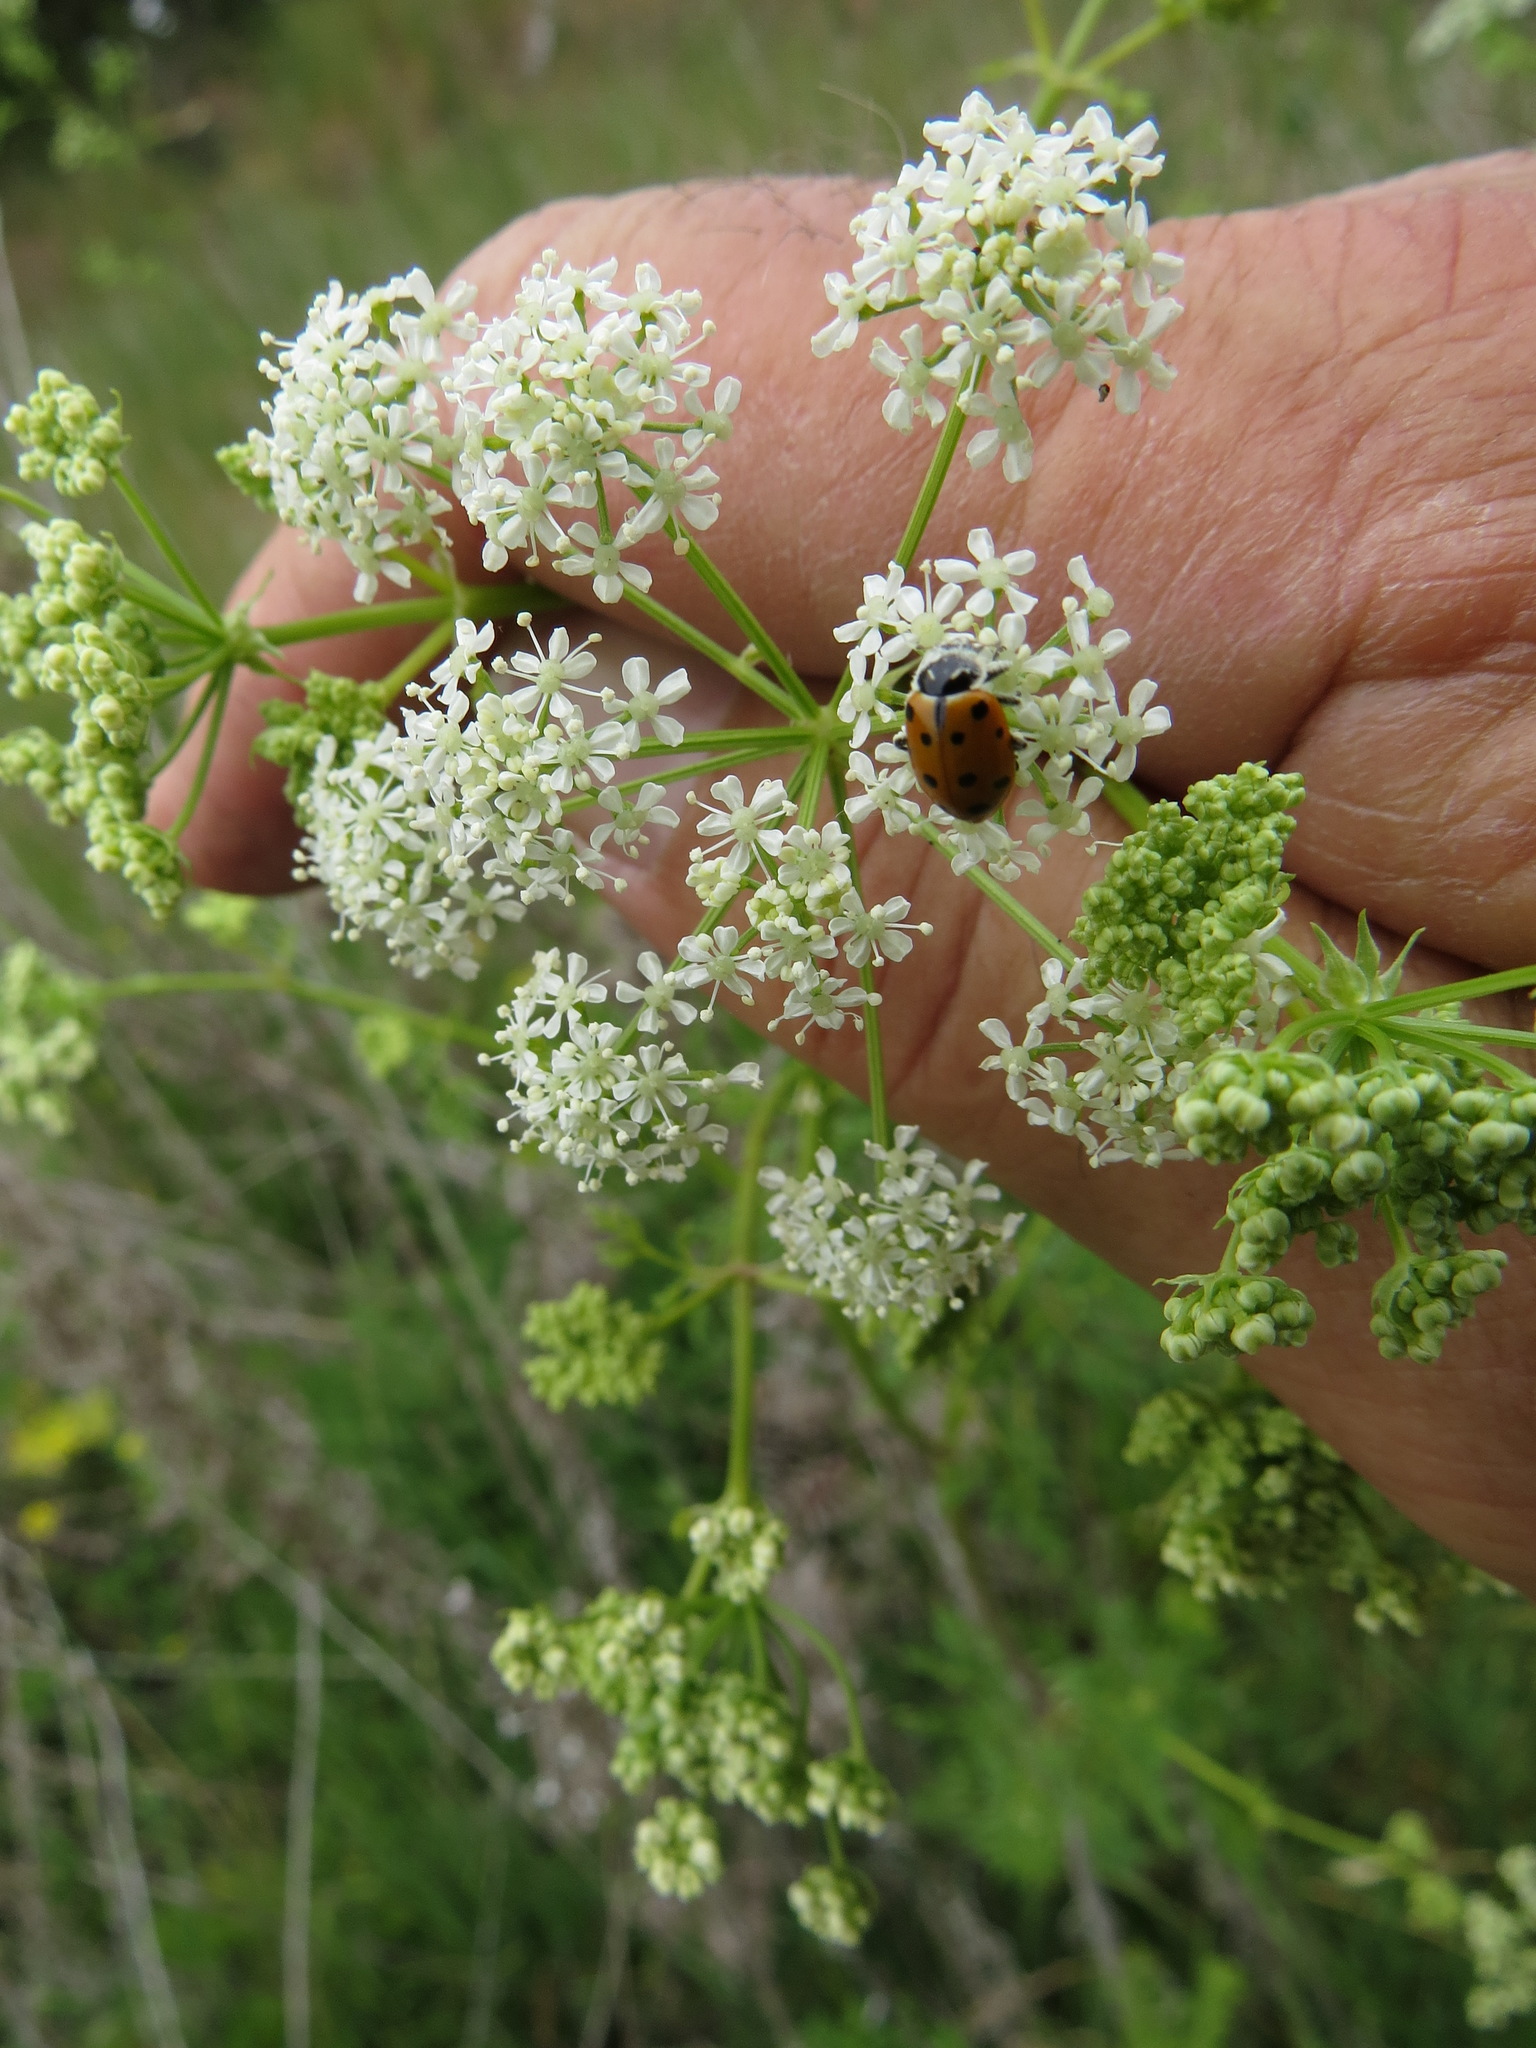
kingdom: Animalia
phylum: Arthropoda
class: Insecta
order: Coleoptera
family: Coccinellidae
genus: Hippodamia
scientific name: Hippodamia convergens
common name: Convergent lady beetle
